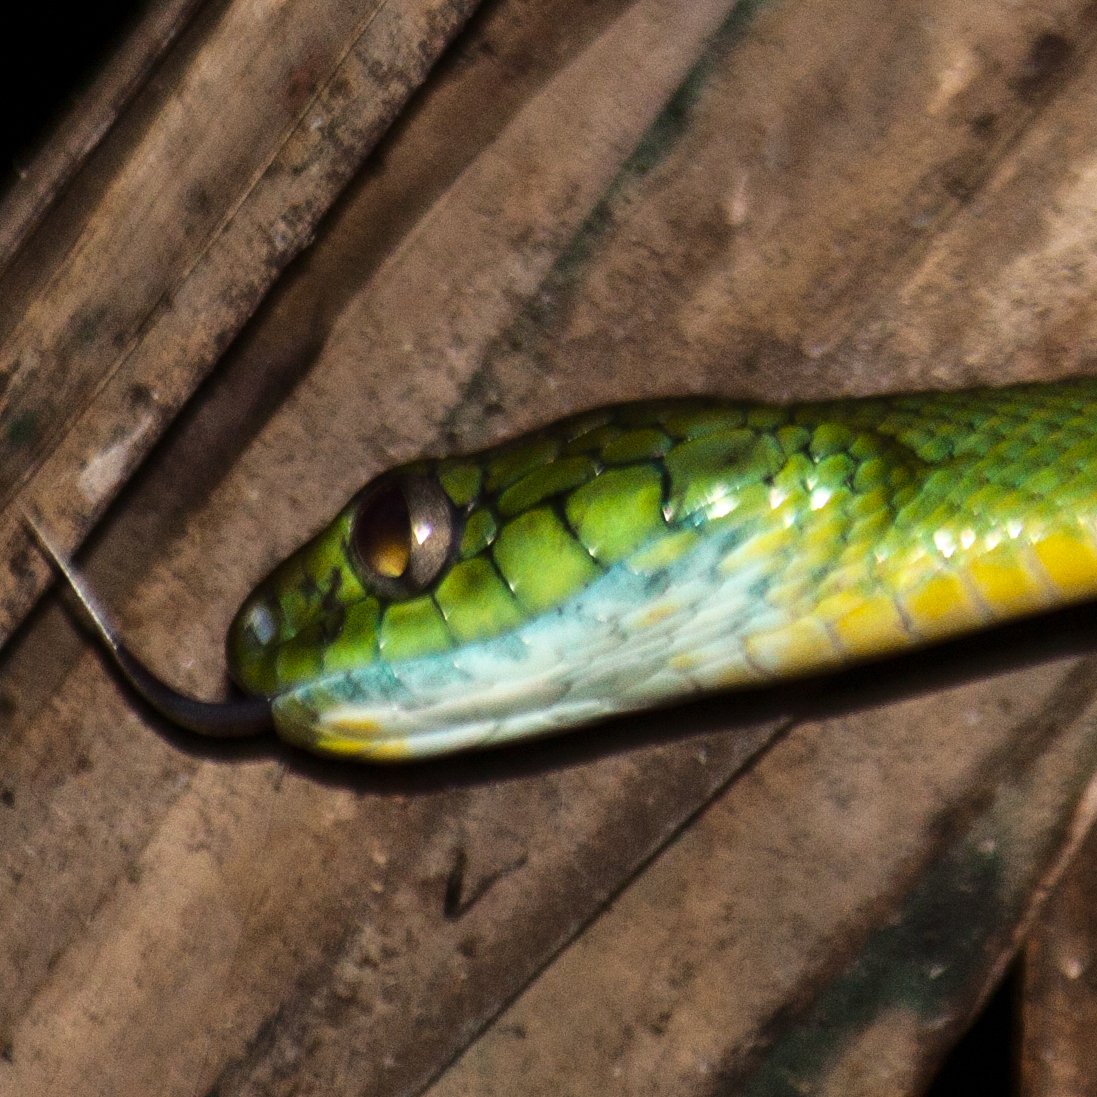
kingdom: Animalia
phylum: Chordata
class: Squamata
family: Colubridae
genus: Boiga
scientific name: Boiga cyanea
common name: Green cat snake
